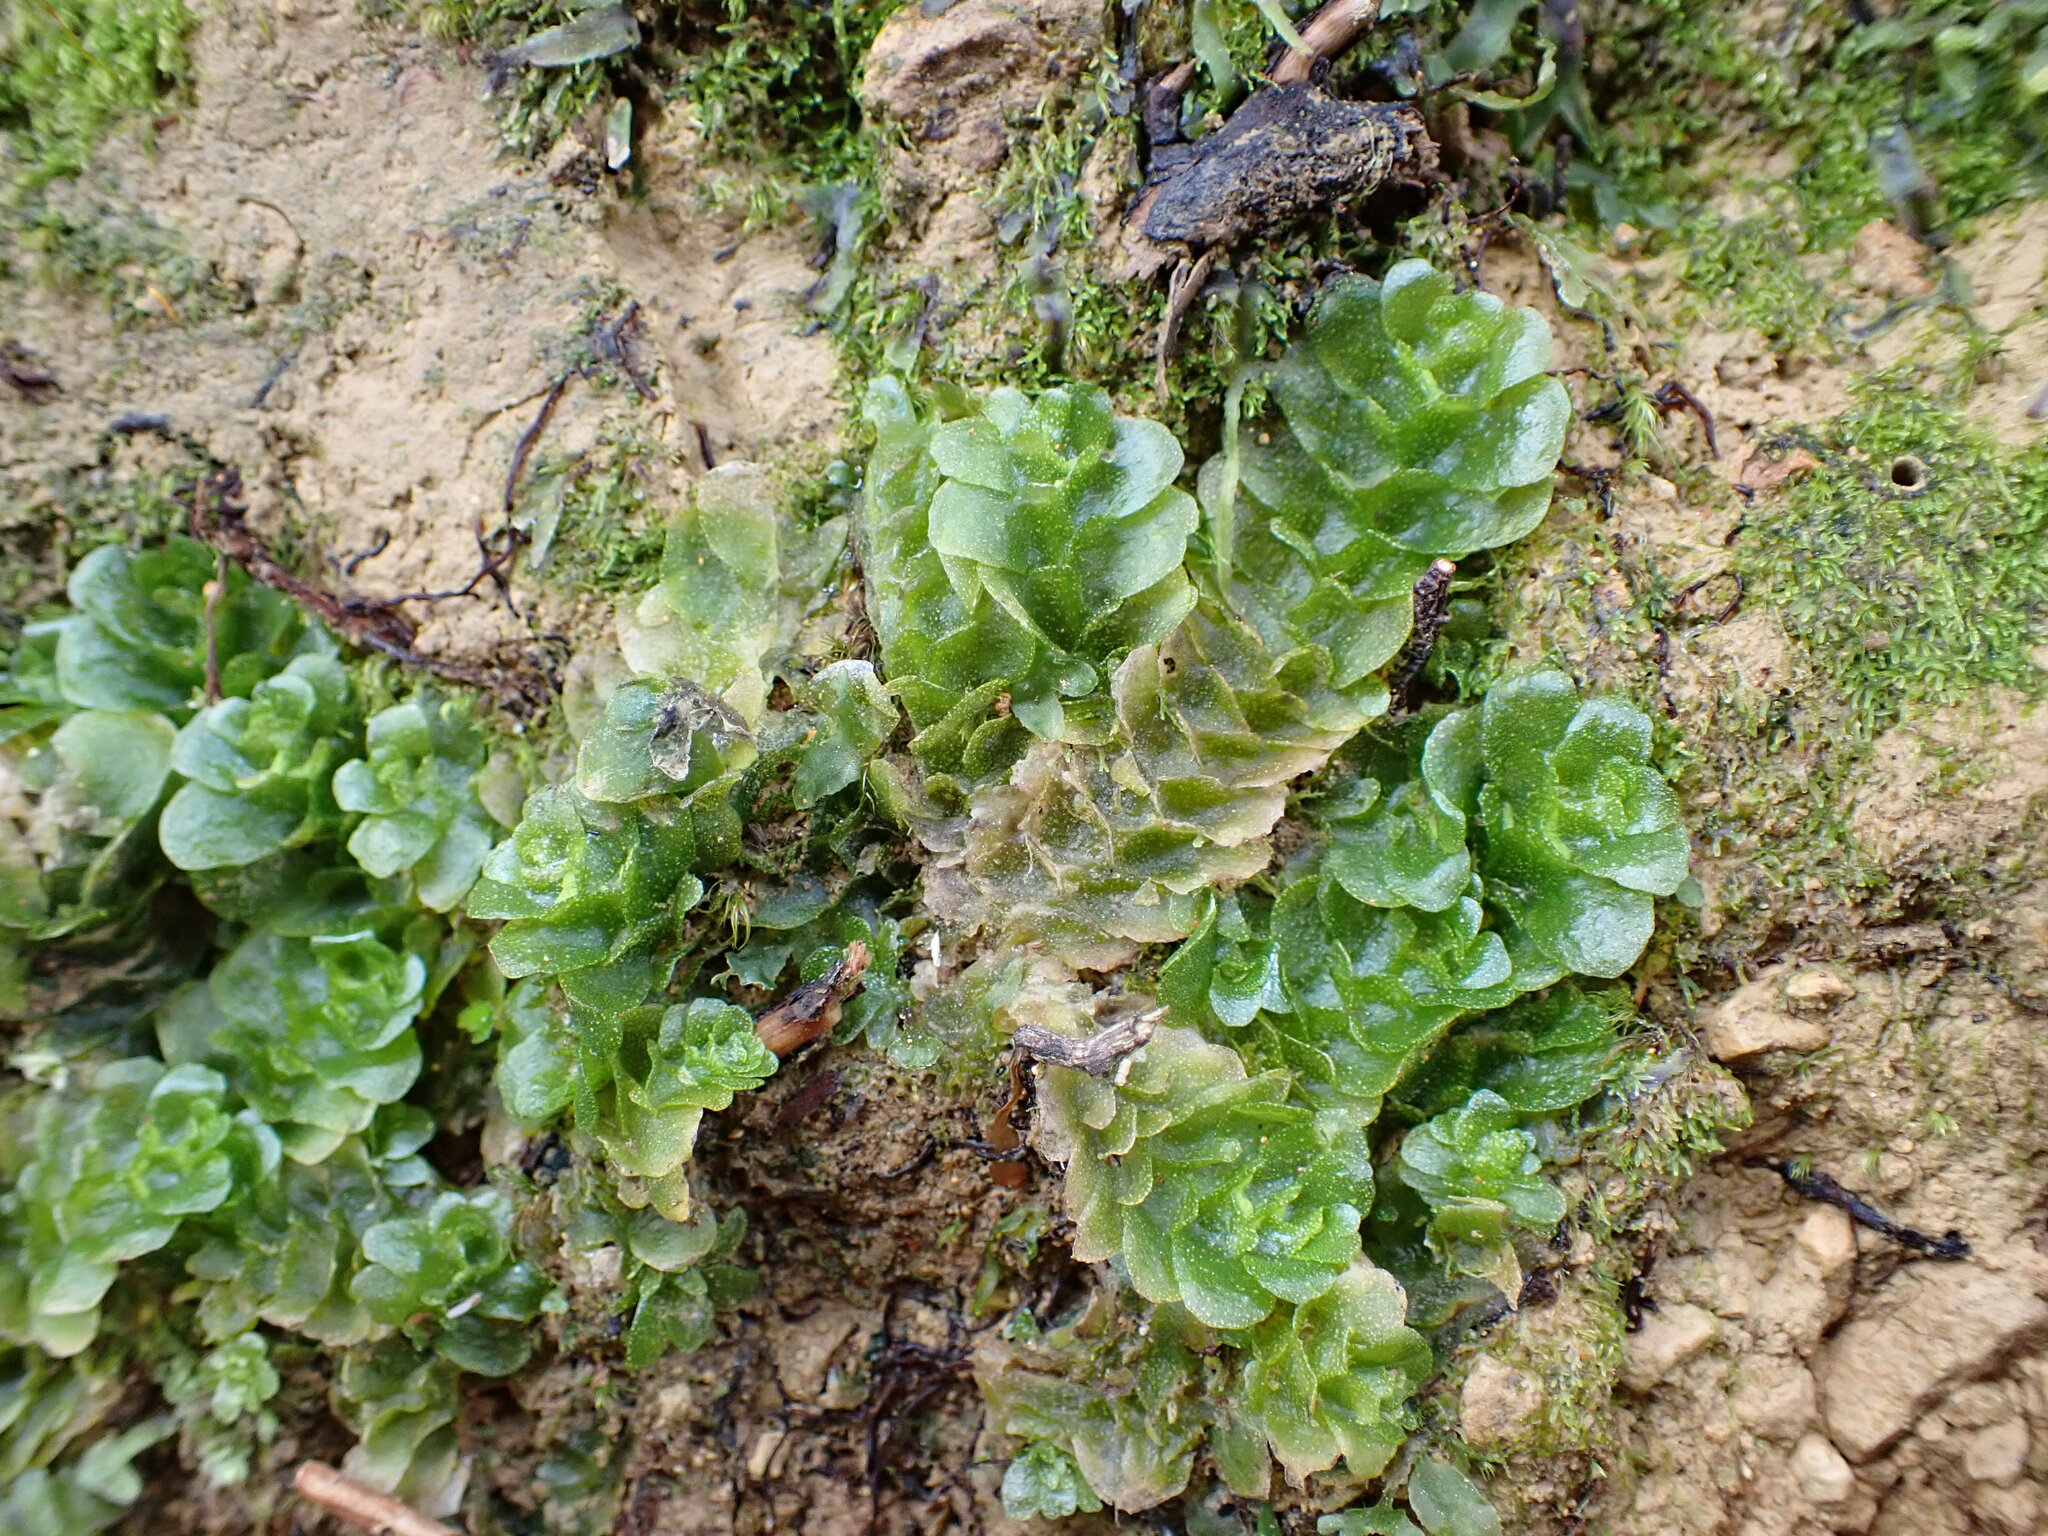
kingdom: Plantae
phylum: Marchantiophyta
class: Haplomitriopsida
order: Treubiales
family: Treubiaceae
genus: Treubia
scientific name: Treubia lacunosa
